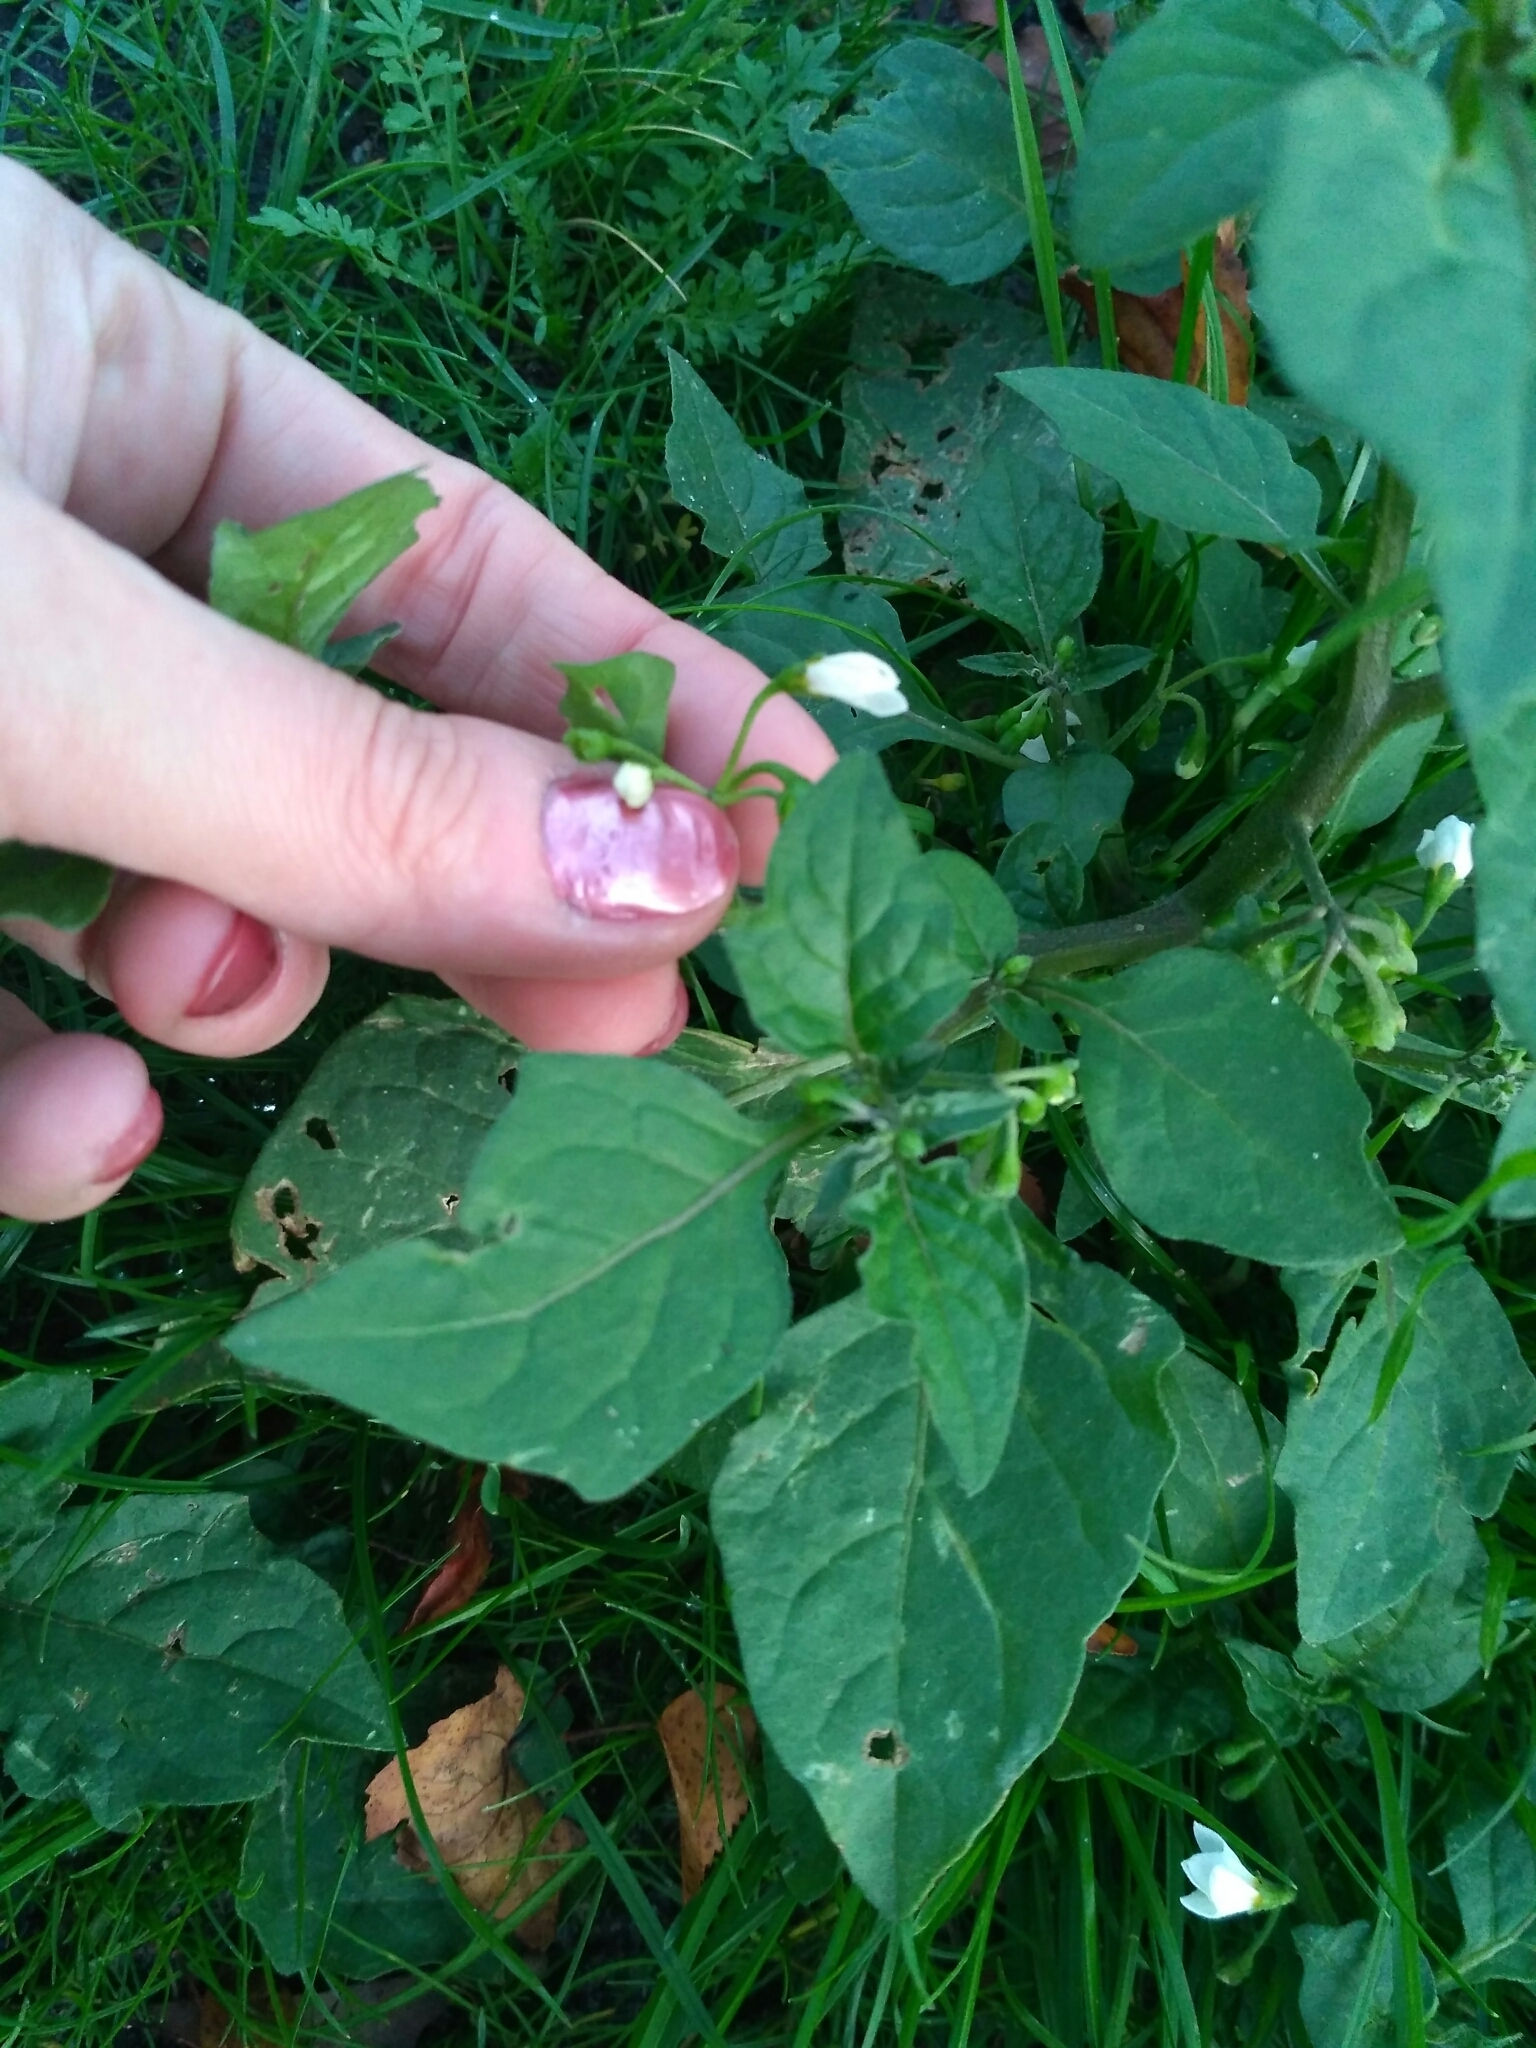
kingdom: Plantae
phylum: Tracheophyta
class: Magnoliopsida
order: Solanales
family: Solanaceae
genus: Solanum
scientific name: Solanum nigrum
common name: Black nightshade
